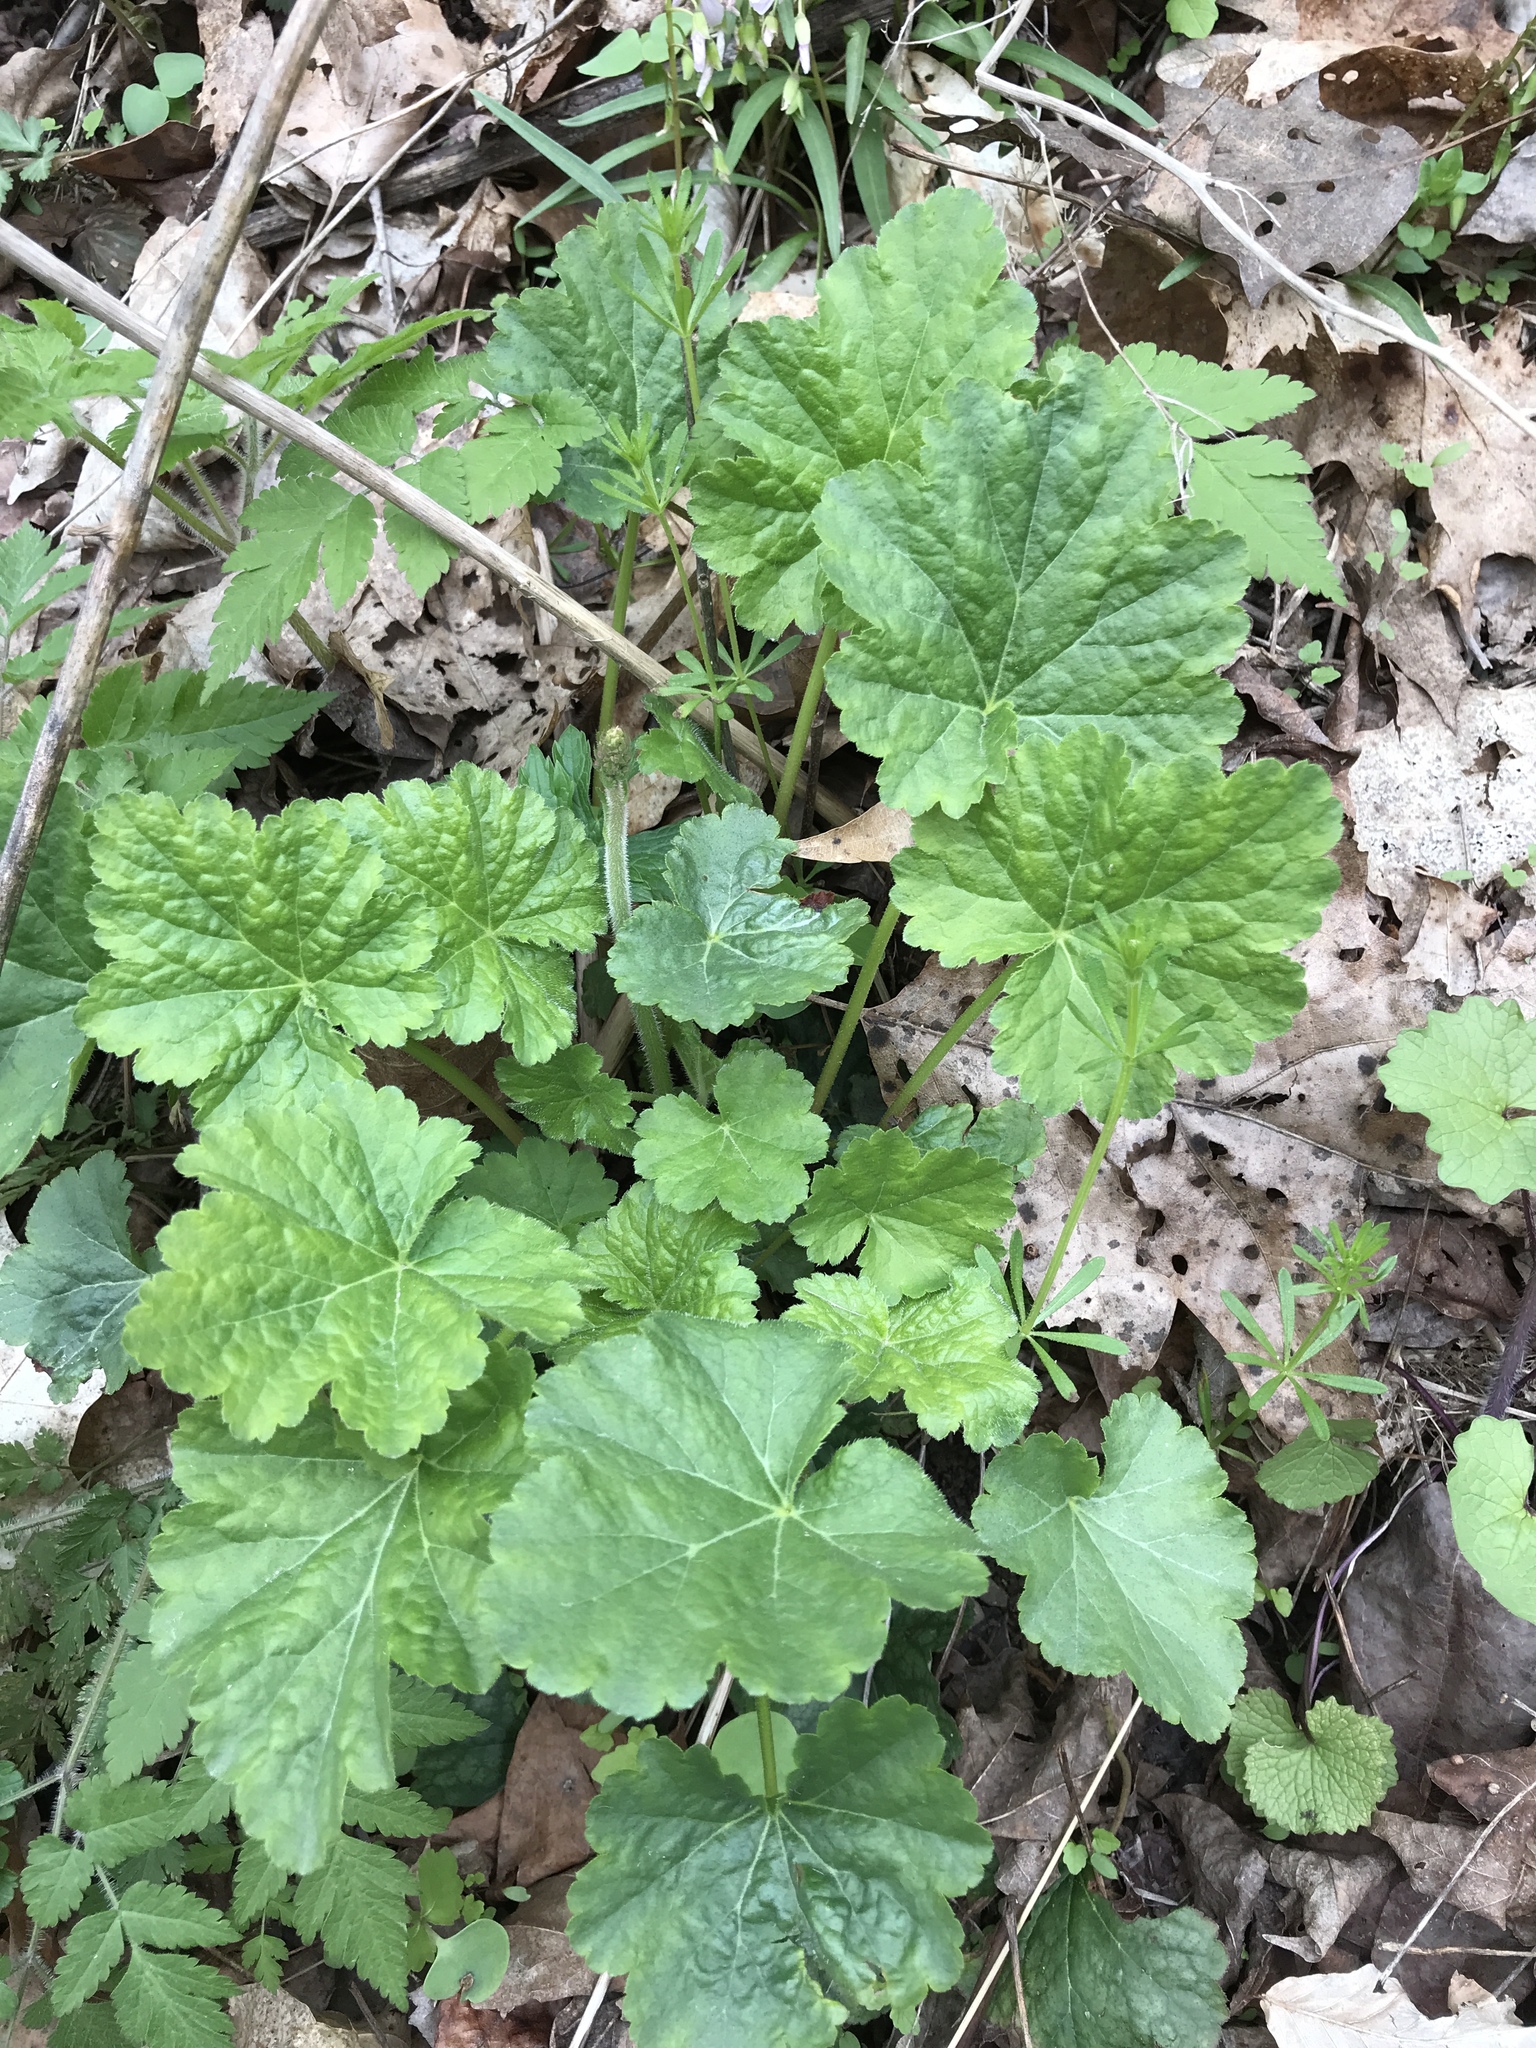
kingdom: Plantae
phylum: Tracheophyta
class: Magnoliopsida
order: Saxifragales
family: Saxifragaceae
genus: Tiarella
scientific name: Tiarella stolonifera
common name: Stoloniferous foamflower
